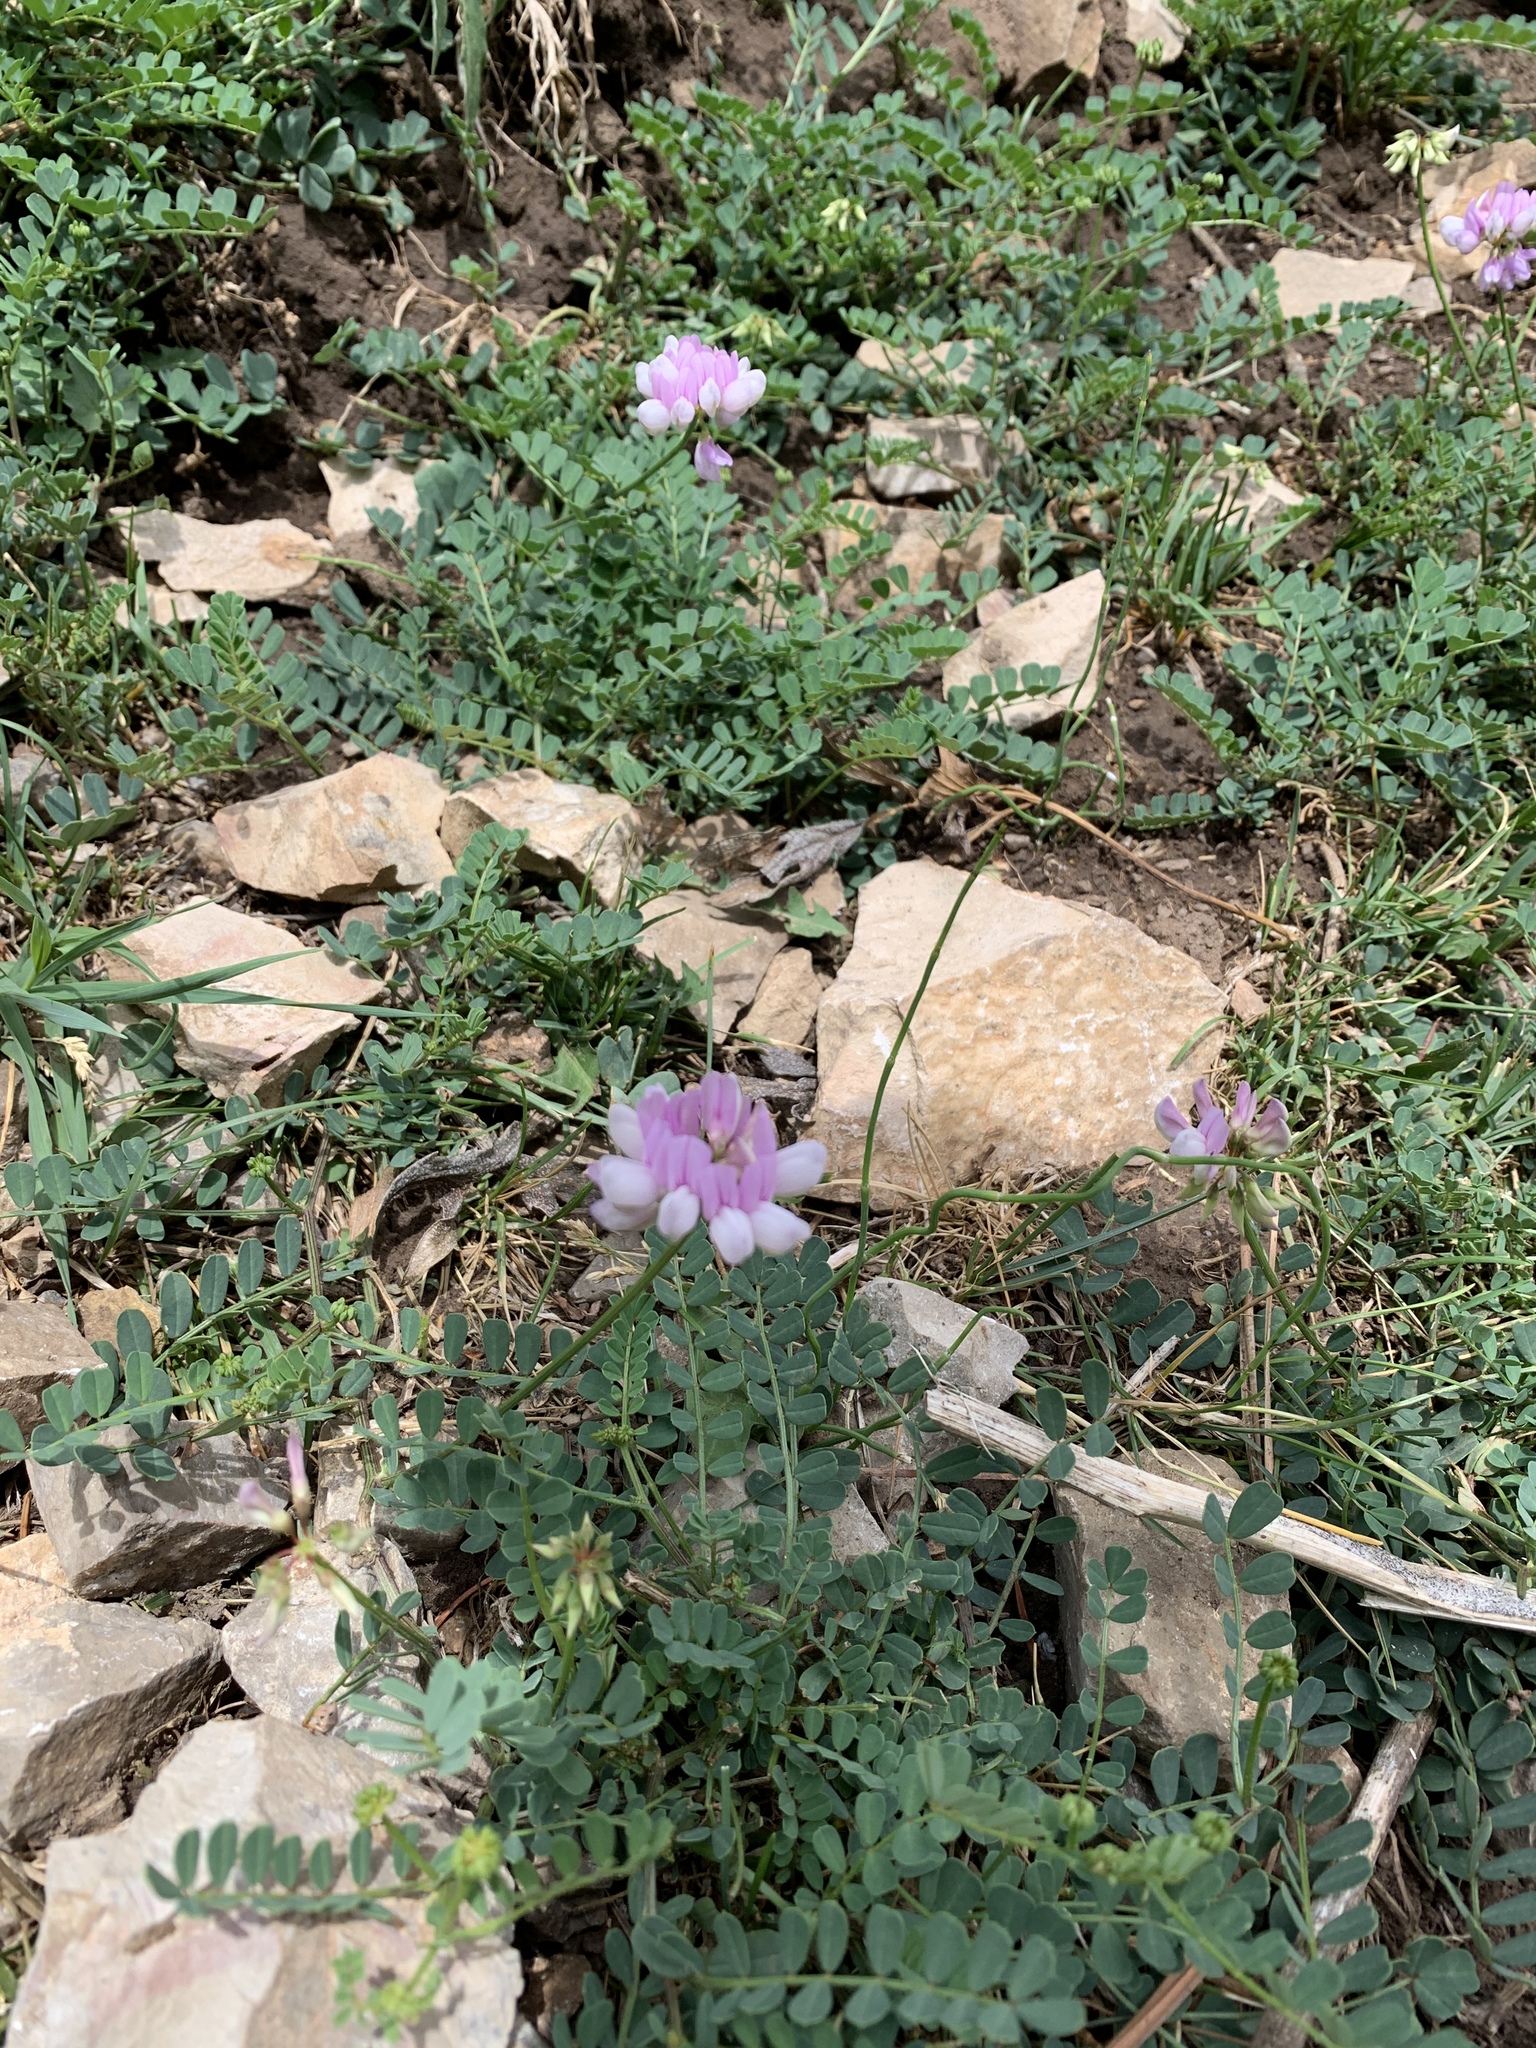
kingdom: Plantae
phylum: Tracheophyta
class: Magnoliopsida
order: Fabales
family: Fabaceae
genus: Coronilla
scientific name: Coronilla varia
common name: Crownvetch
